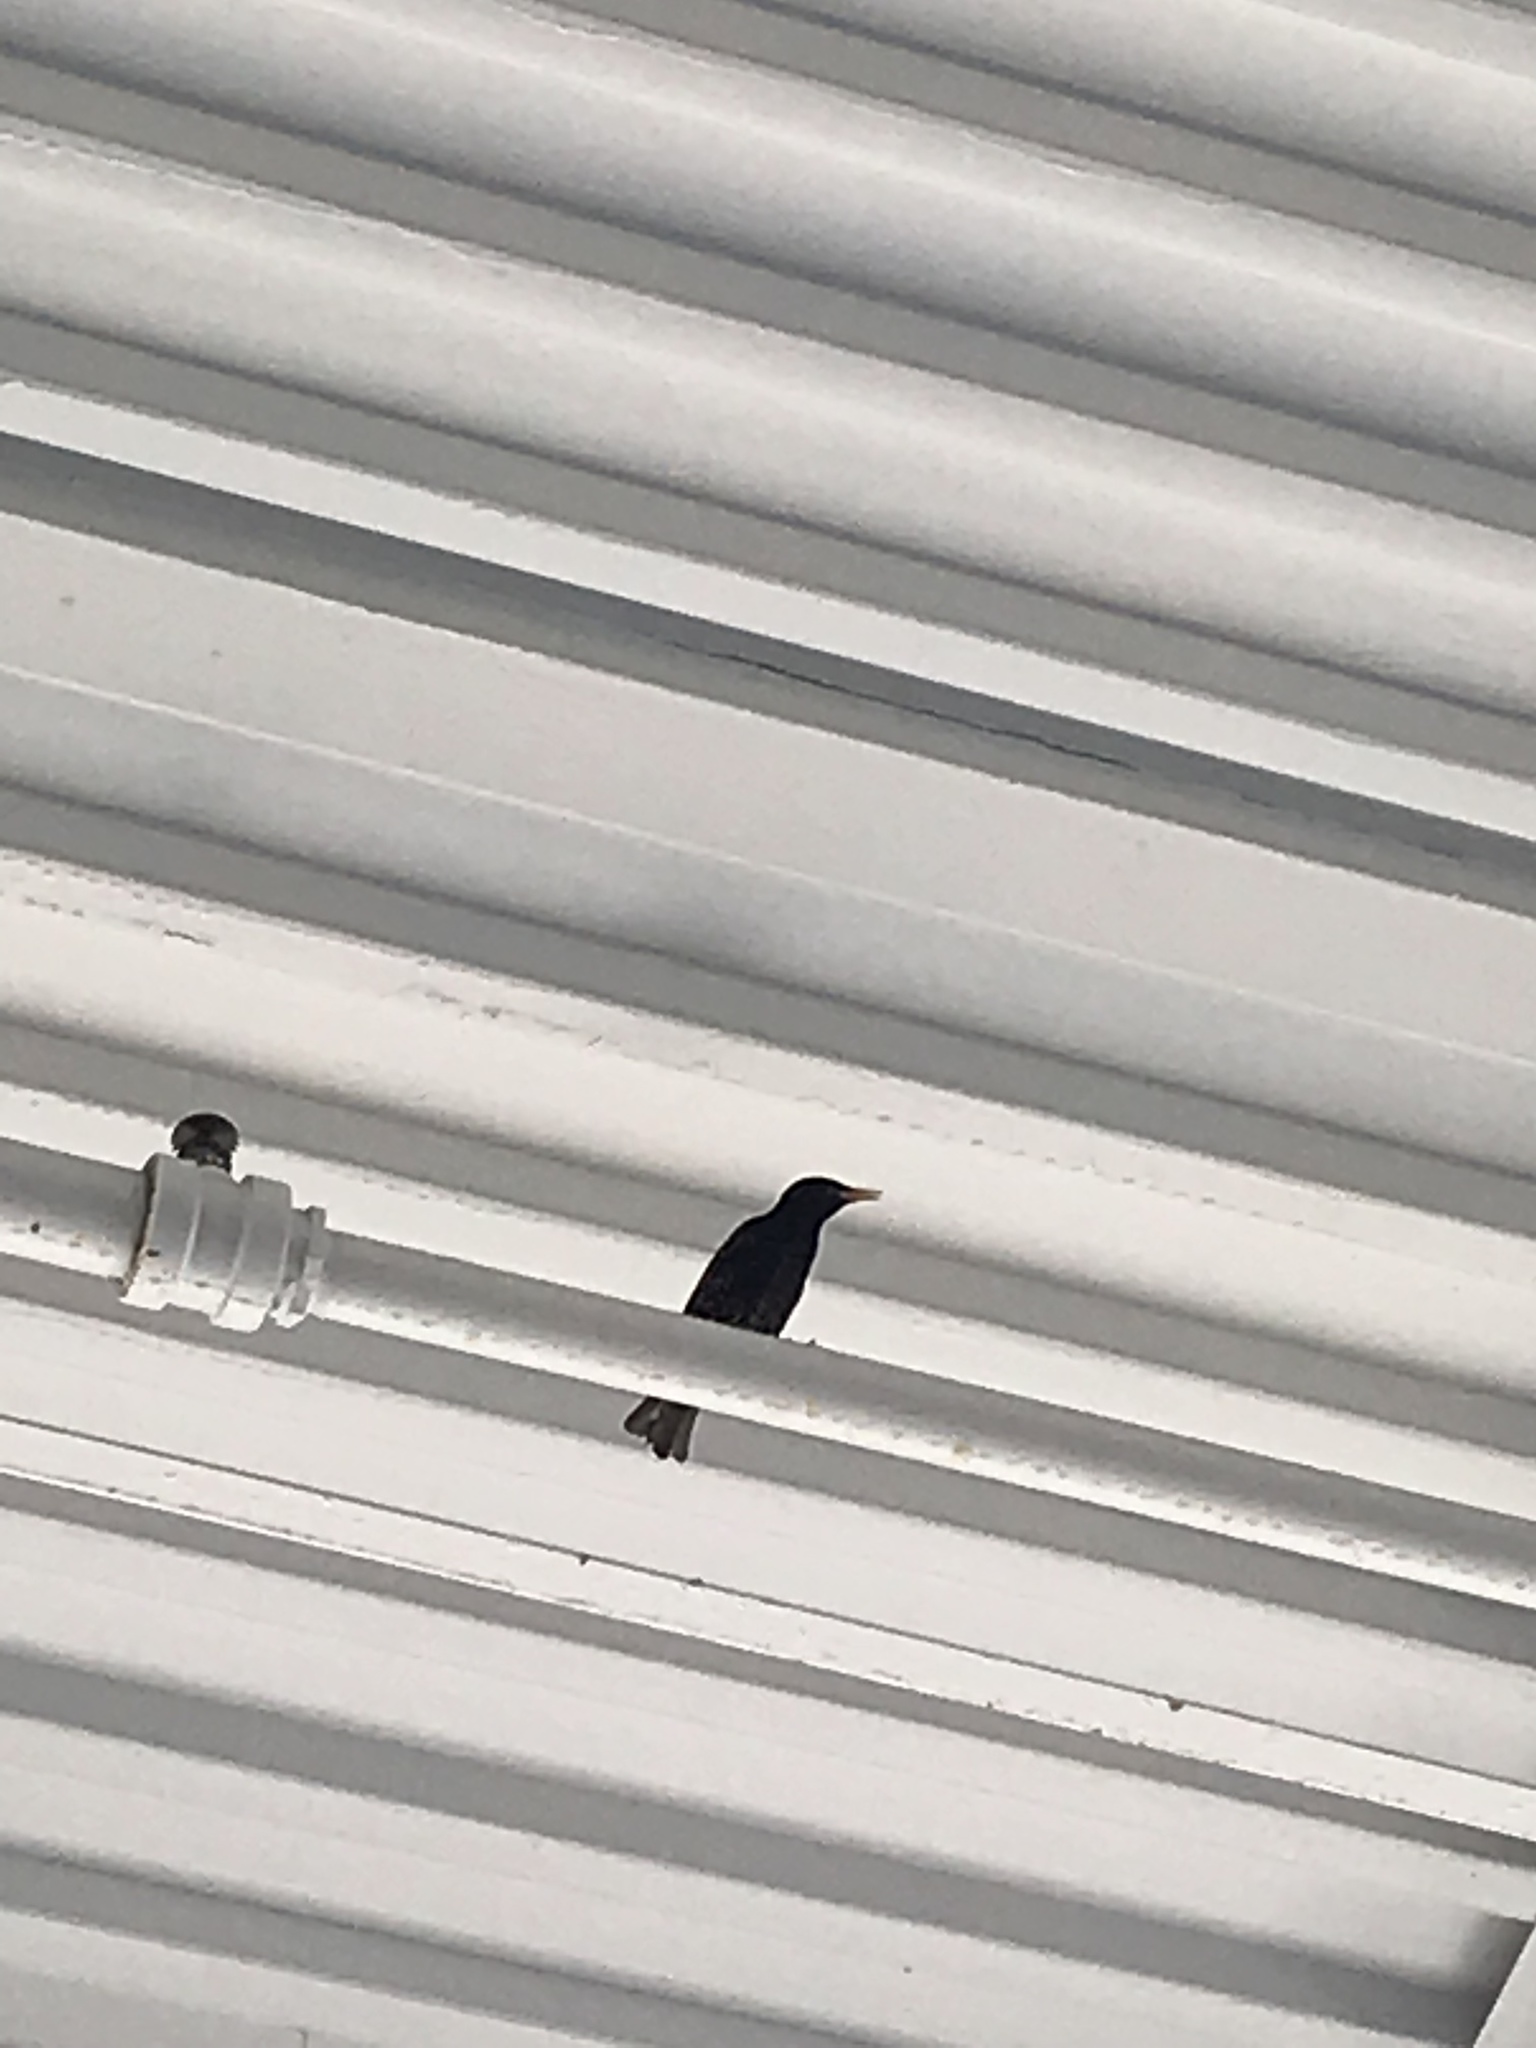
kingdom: Animalia
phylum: Chordata
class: Aves
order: Passeriformes
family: Sturnidae
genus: Sturnus
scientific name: Sturnus vulgaris
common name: Common starling
